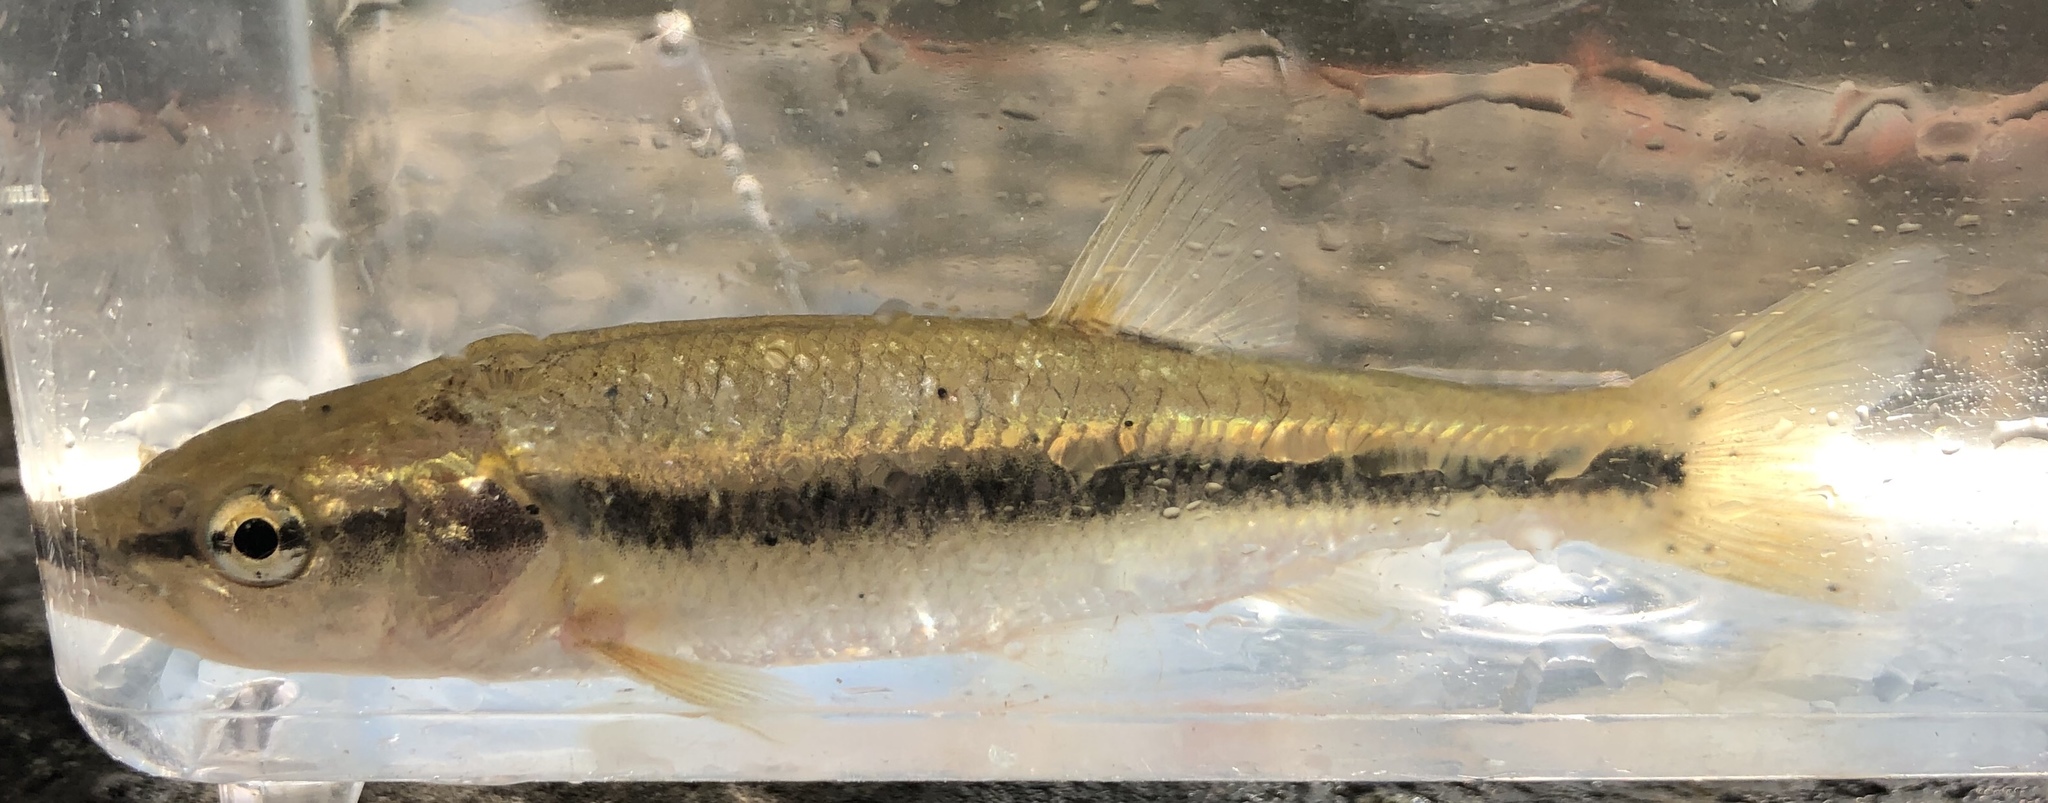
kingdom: Animalia
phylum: Chordata
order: Cypriniformes
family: Cyprinidae
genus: Semotilus
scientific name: Semotilus atromaculatus
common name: Creek chub
